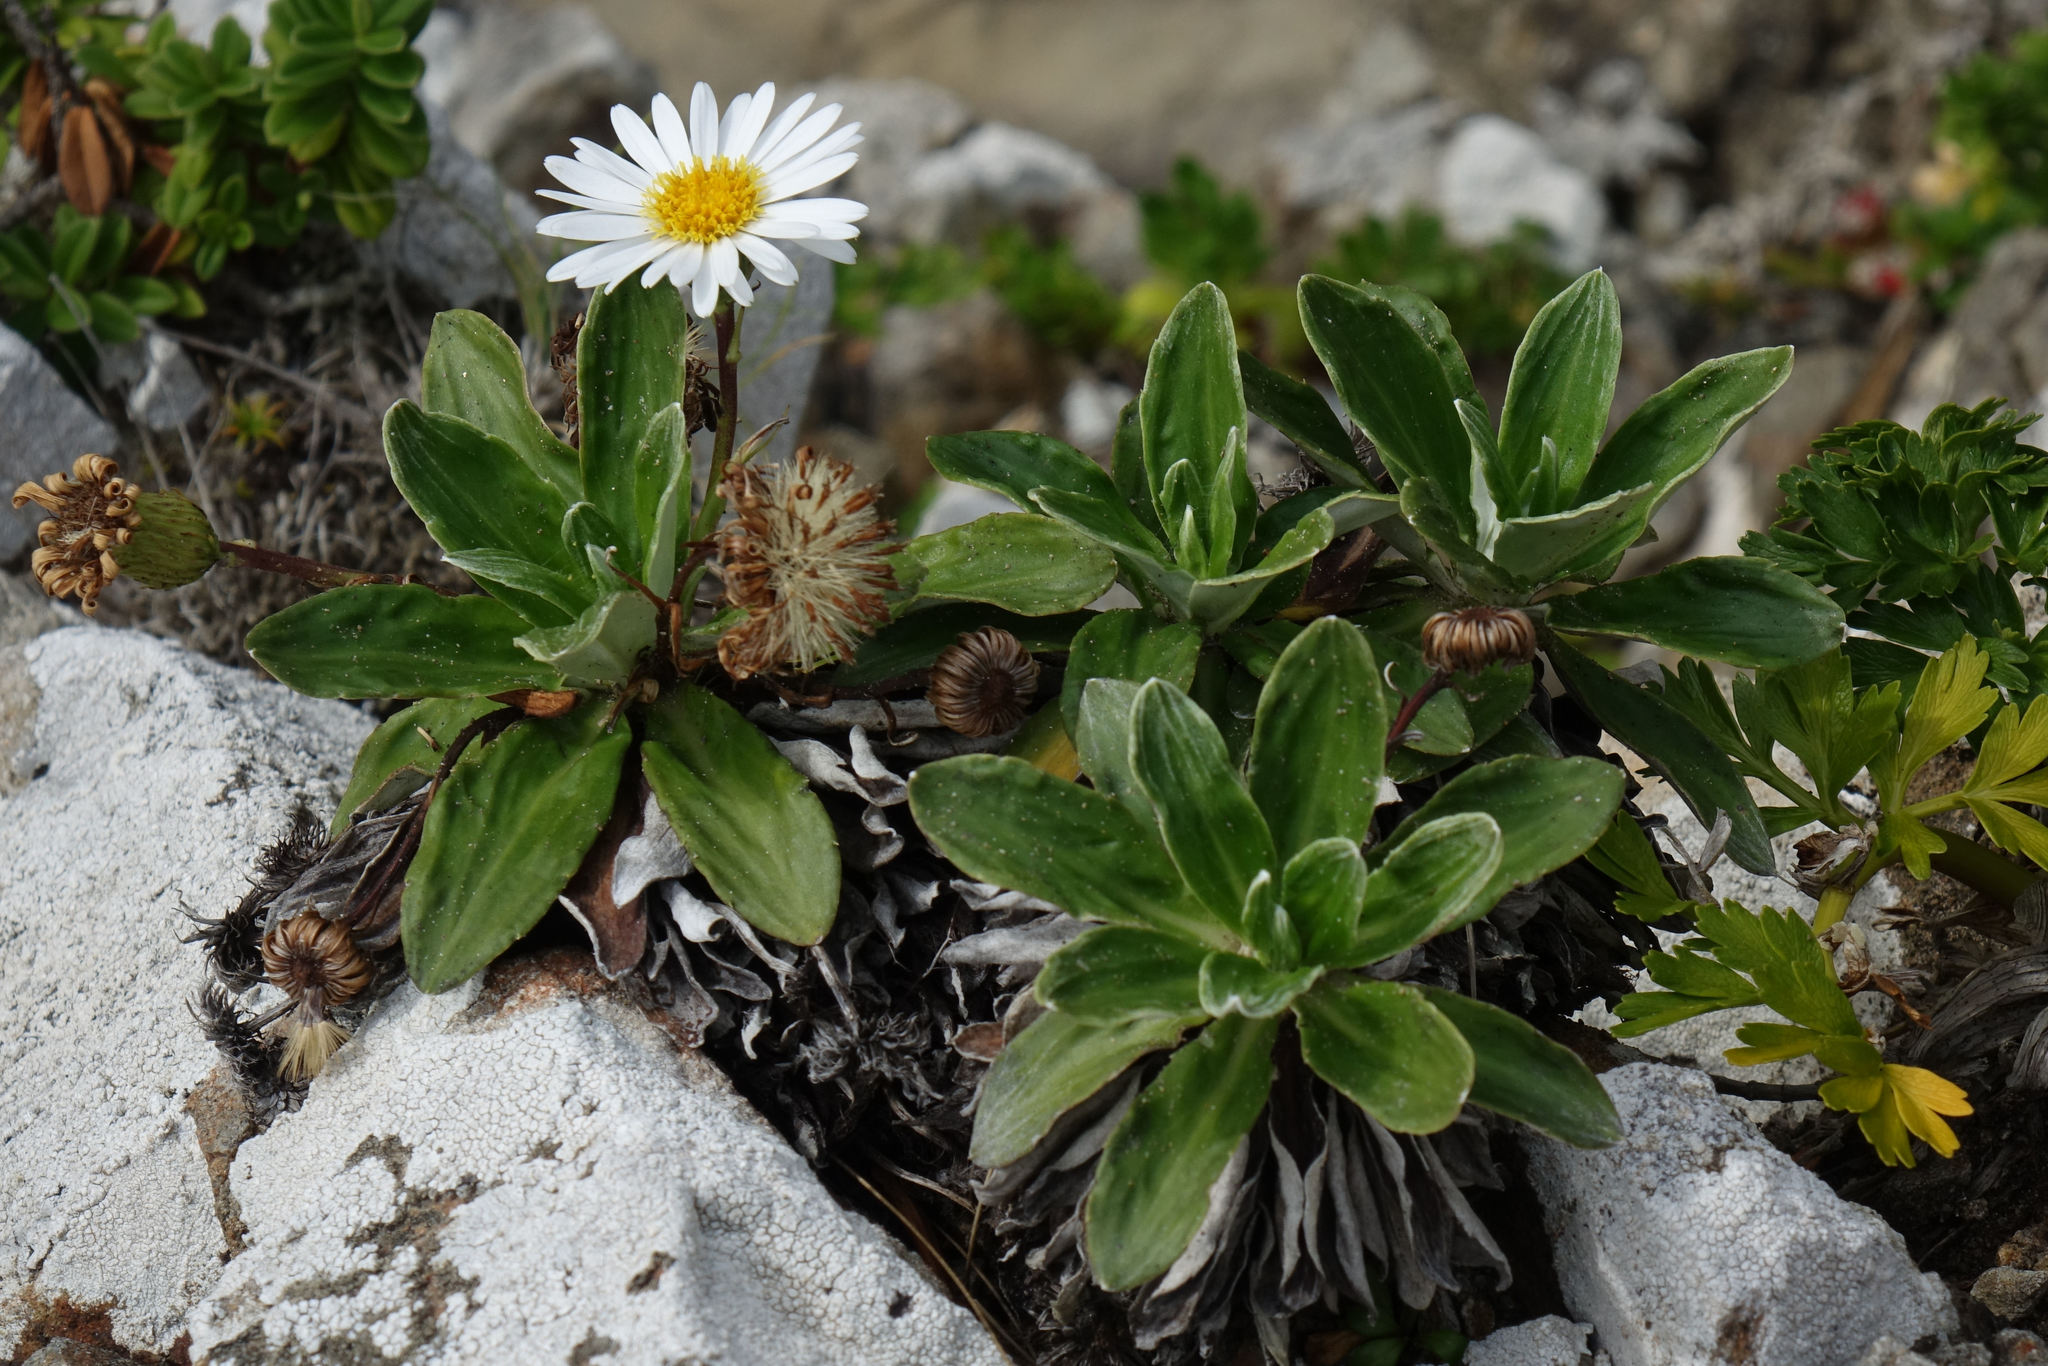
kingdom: Plantae
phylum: Tracheophyta
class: Magnoliopsida
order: Asterales
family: Asteraceae
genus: Celmisia
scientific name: Celmisia lindsayi
